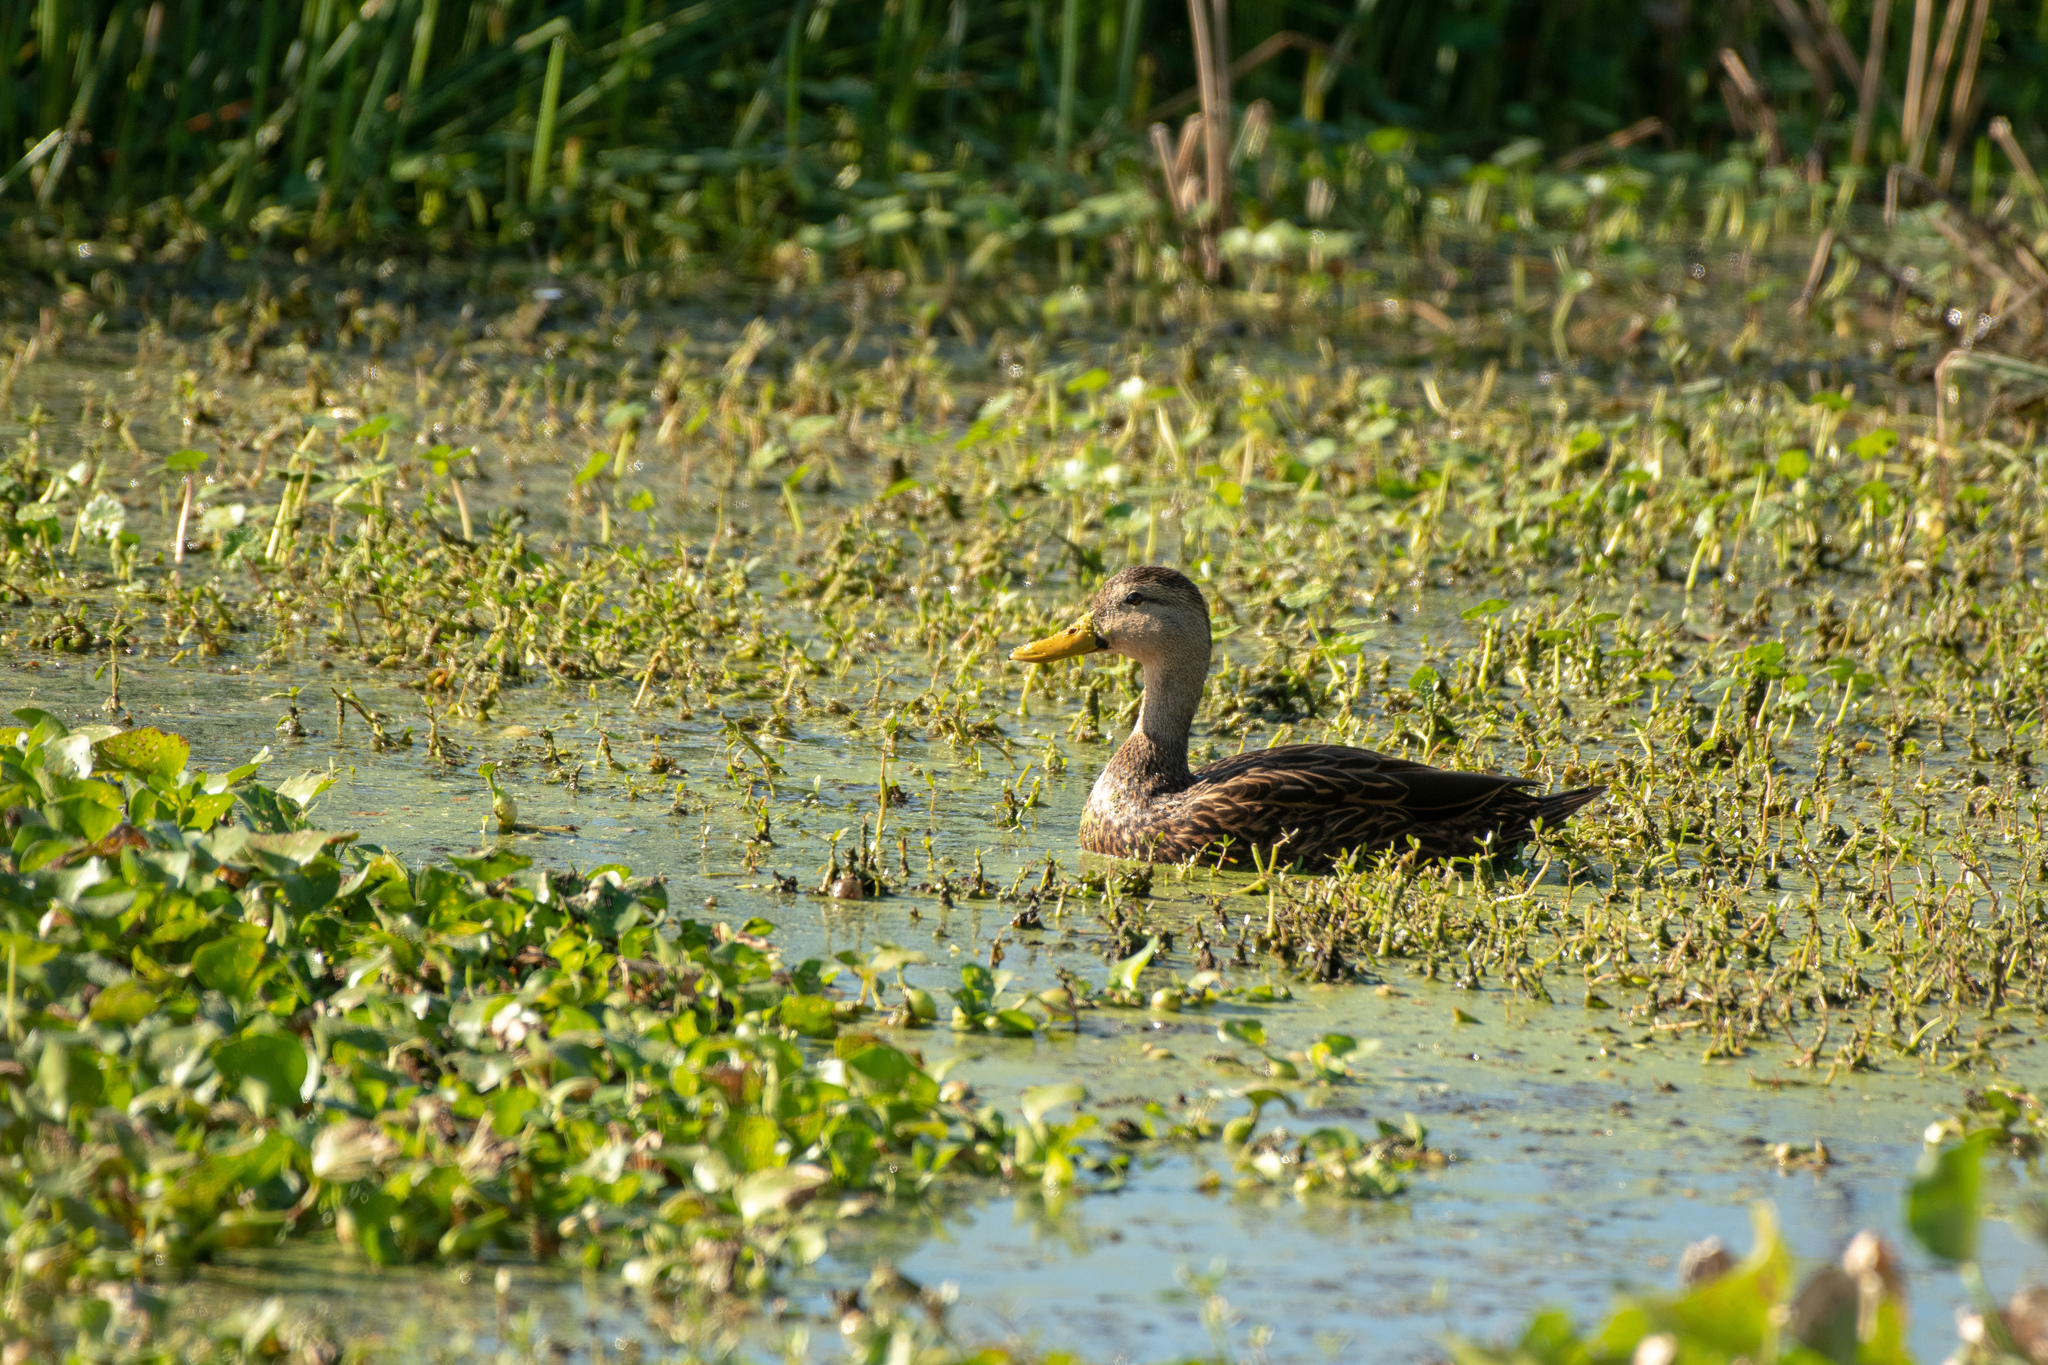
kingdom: Animalia
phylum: Chordata
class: Aves
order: Anseriformes
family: Anatidae
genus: Anas
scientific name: Anas fulvigula
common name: Mottled duck
